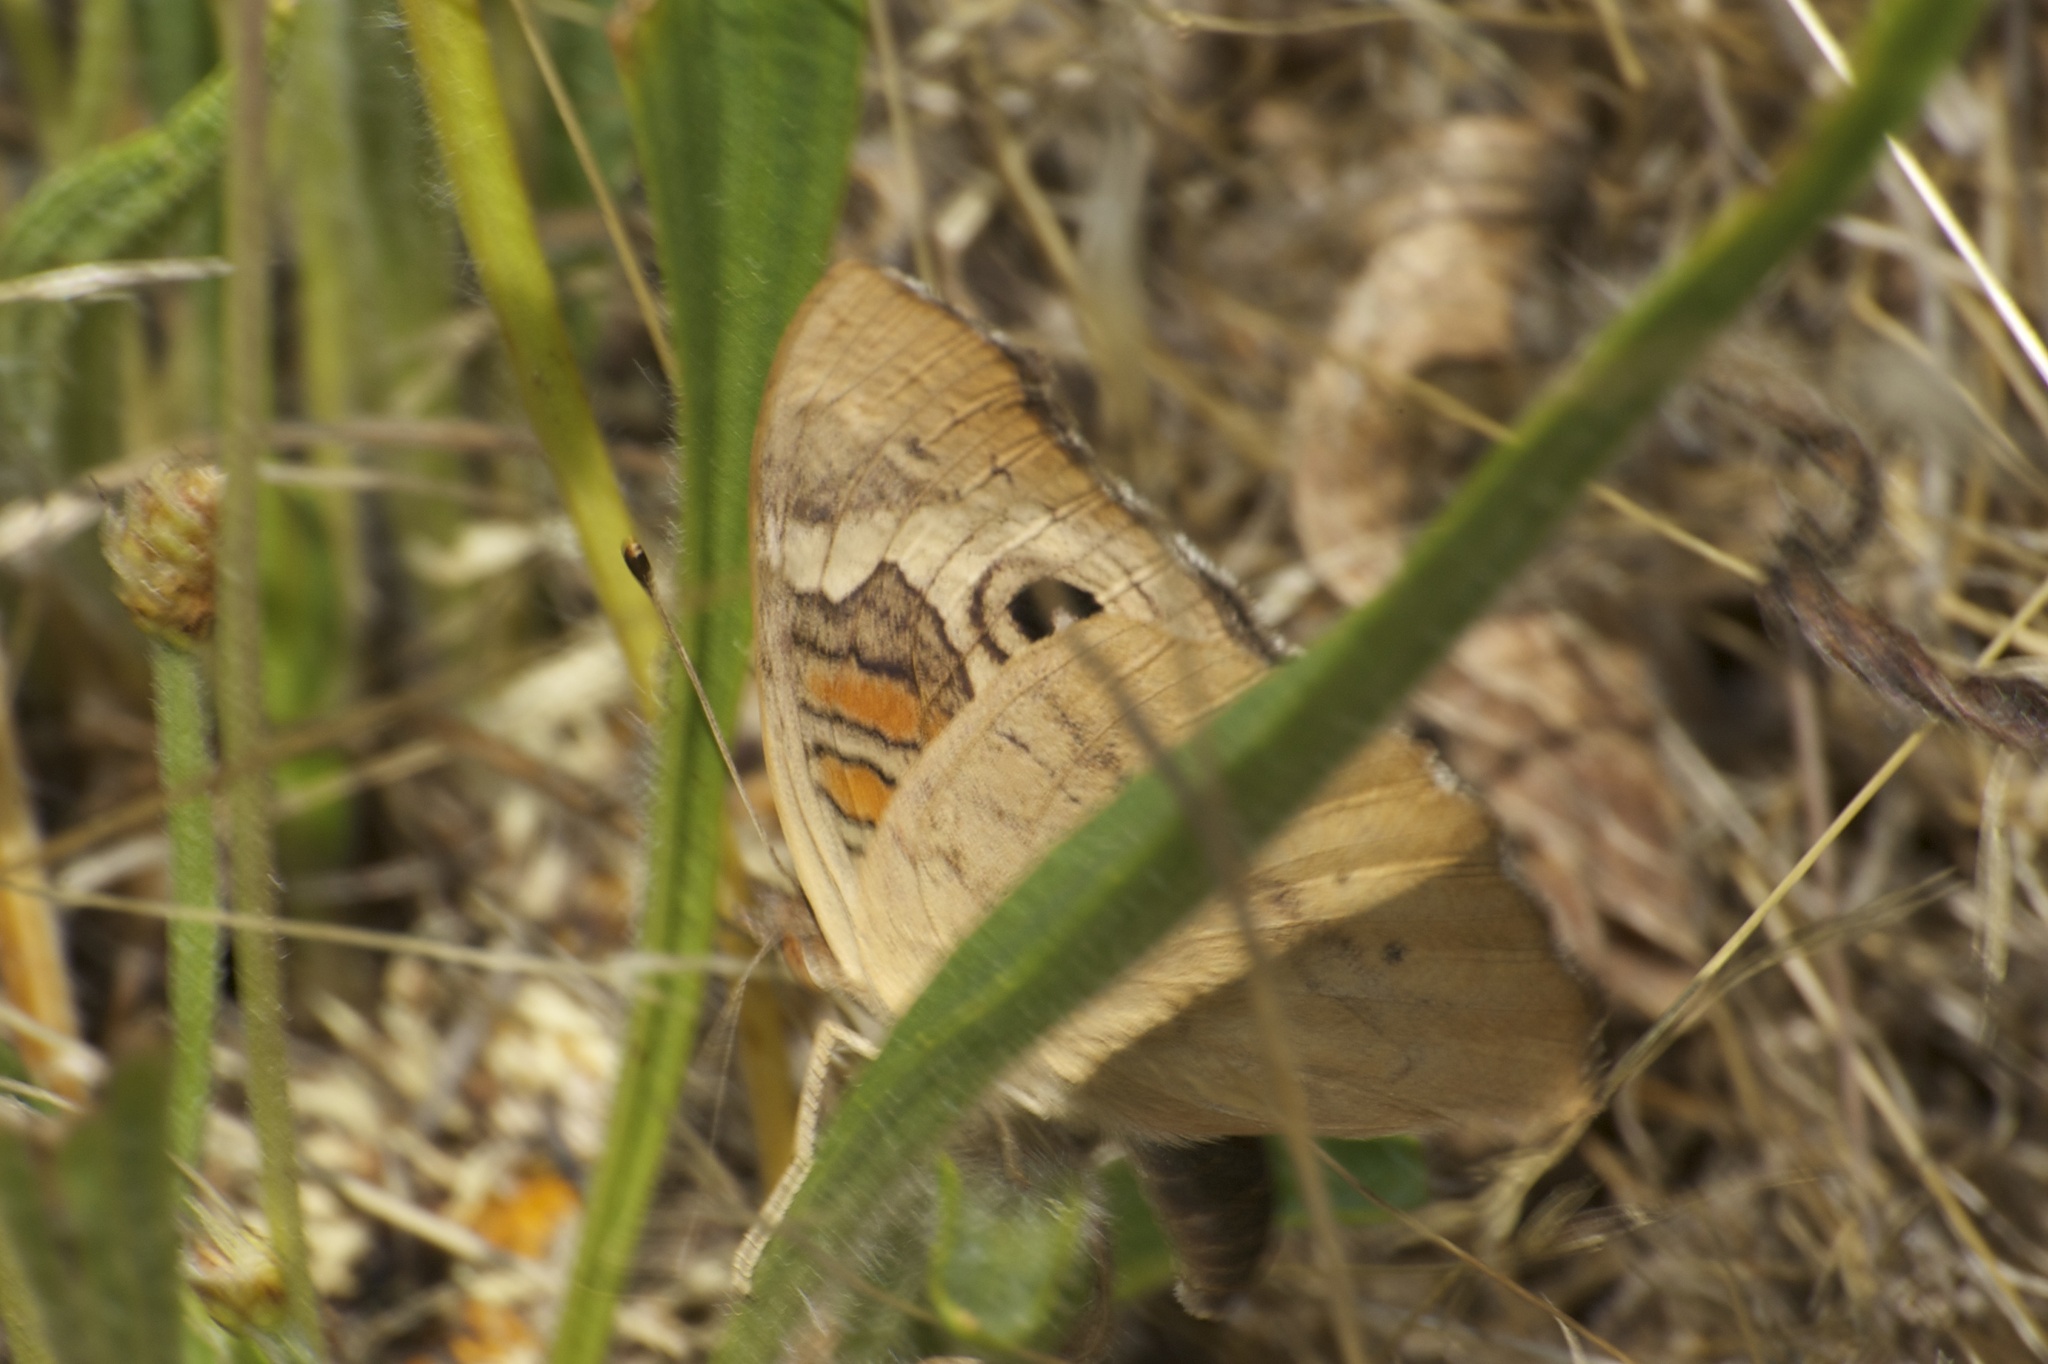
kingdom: Animalia
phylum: Arthropoda
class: Insecta
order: Lepidoptera
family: Nymphalidae
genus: Junonia
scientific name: Junonia grisea
